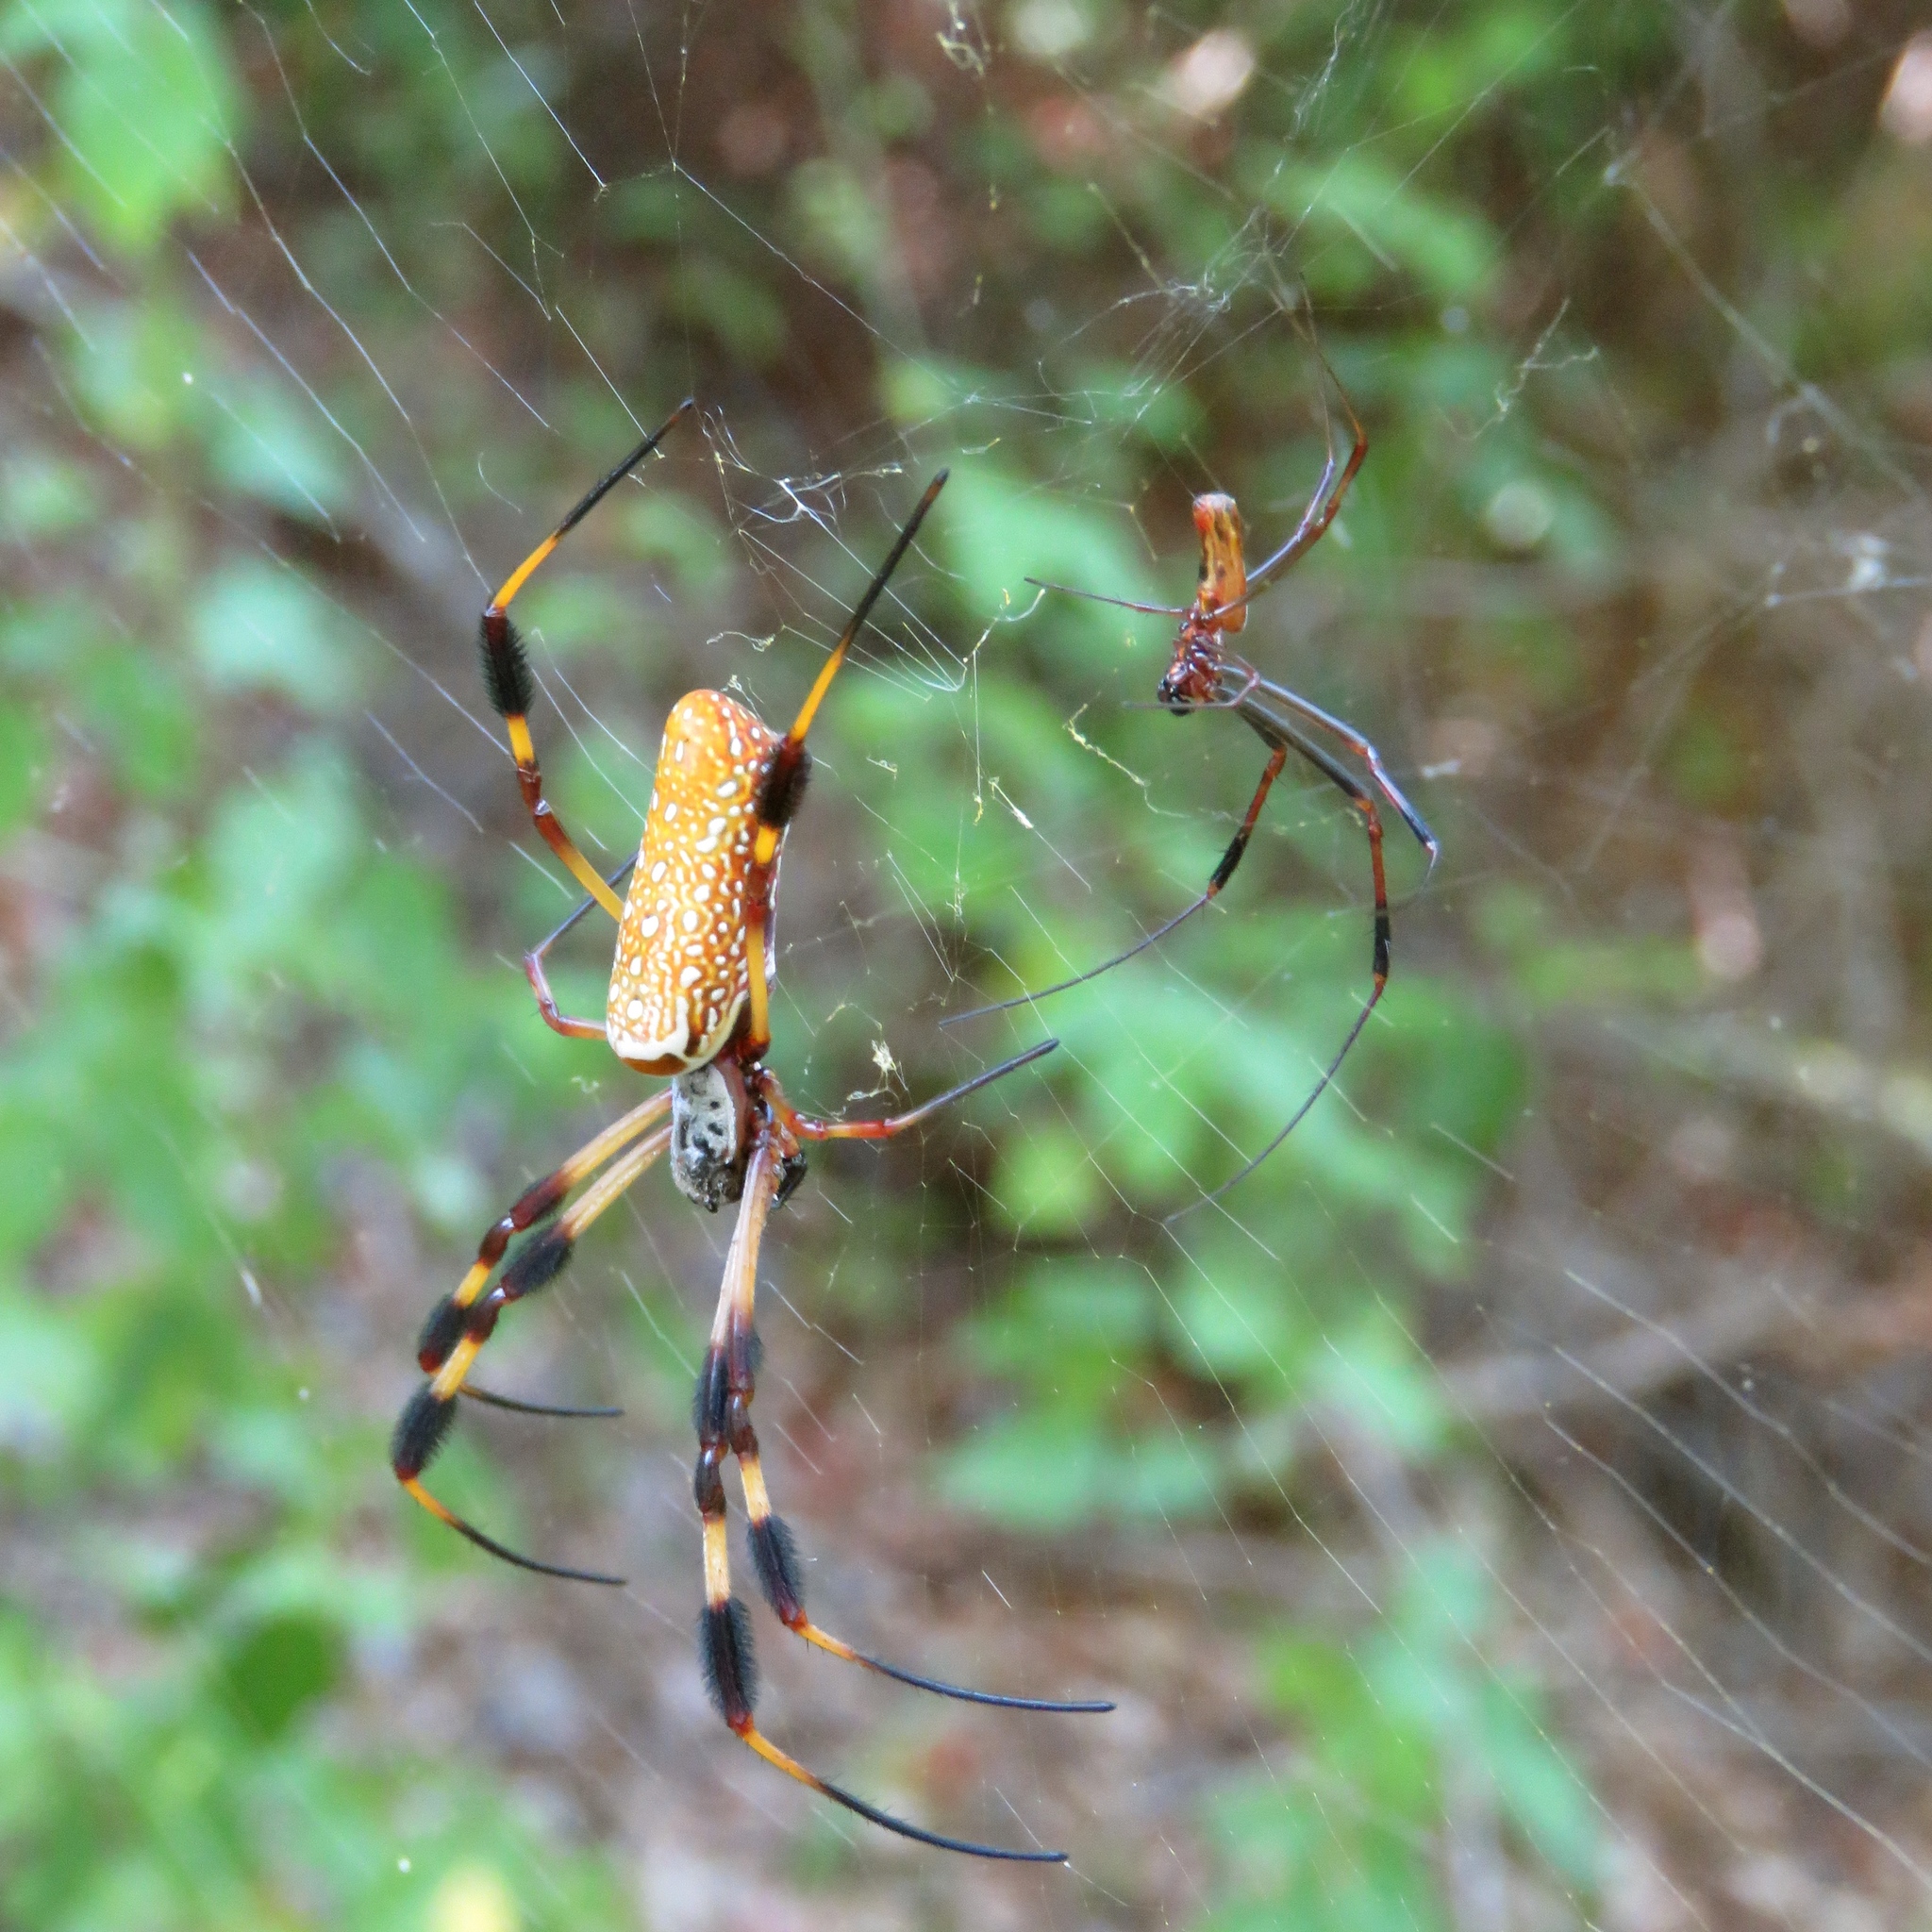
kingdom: Animalia
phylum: Arthropoda
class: Arachnida
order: Araneae
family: Araneidae
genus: Trichonephila
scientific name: Trichonephila clavipes
